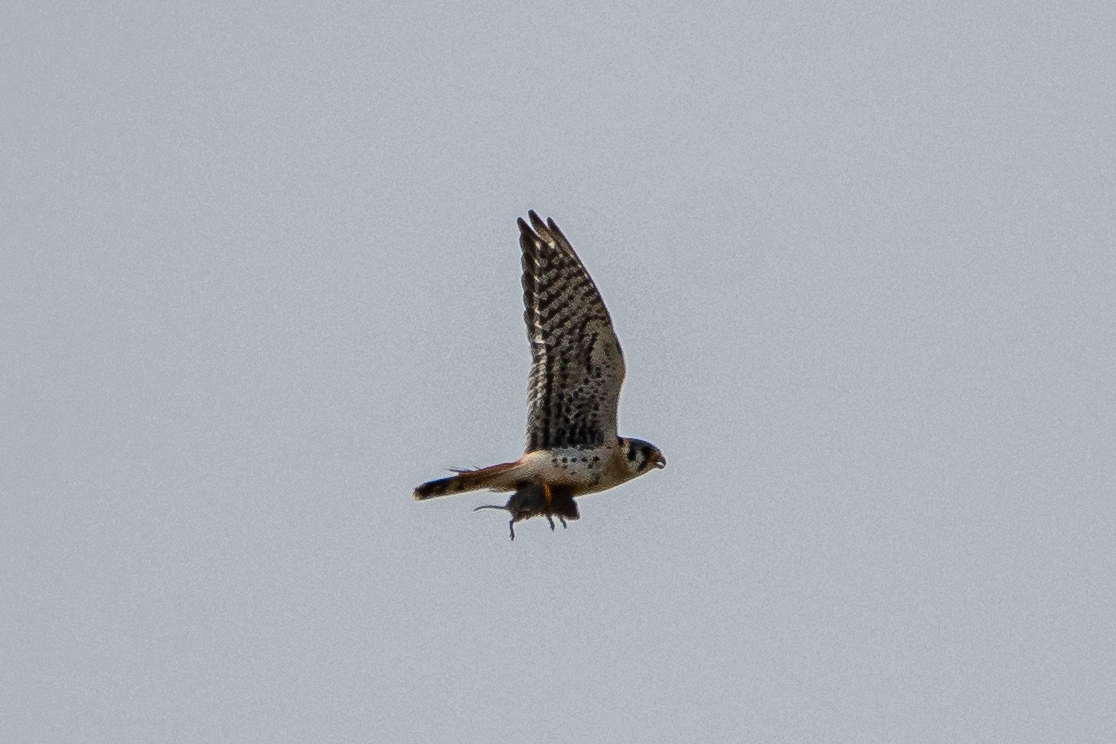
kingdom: Animalia
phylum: Chordata
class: Aves
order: Falconiformes
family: Falconidae
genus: Falco
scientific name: Falco sparverius
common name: American kestrel
